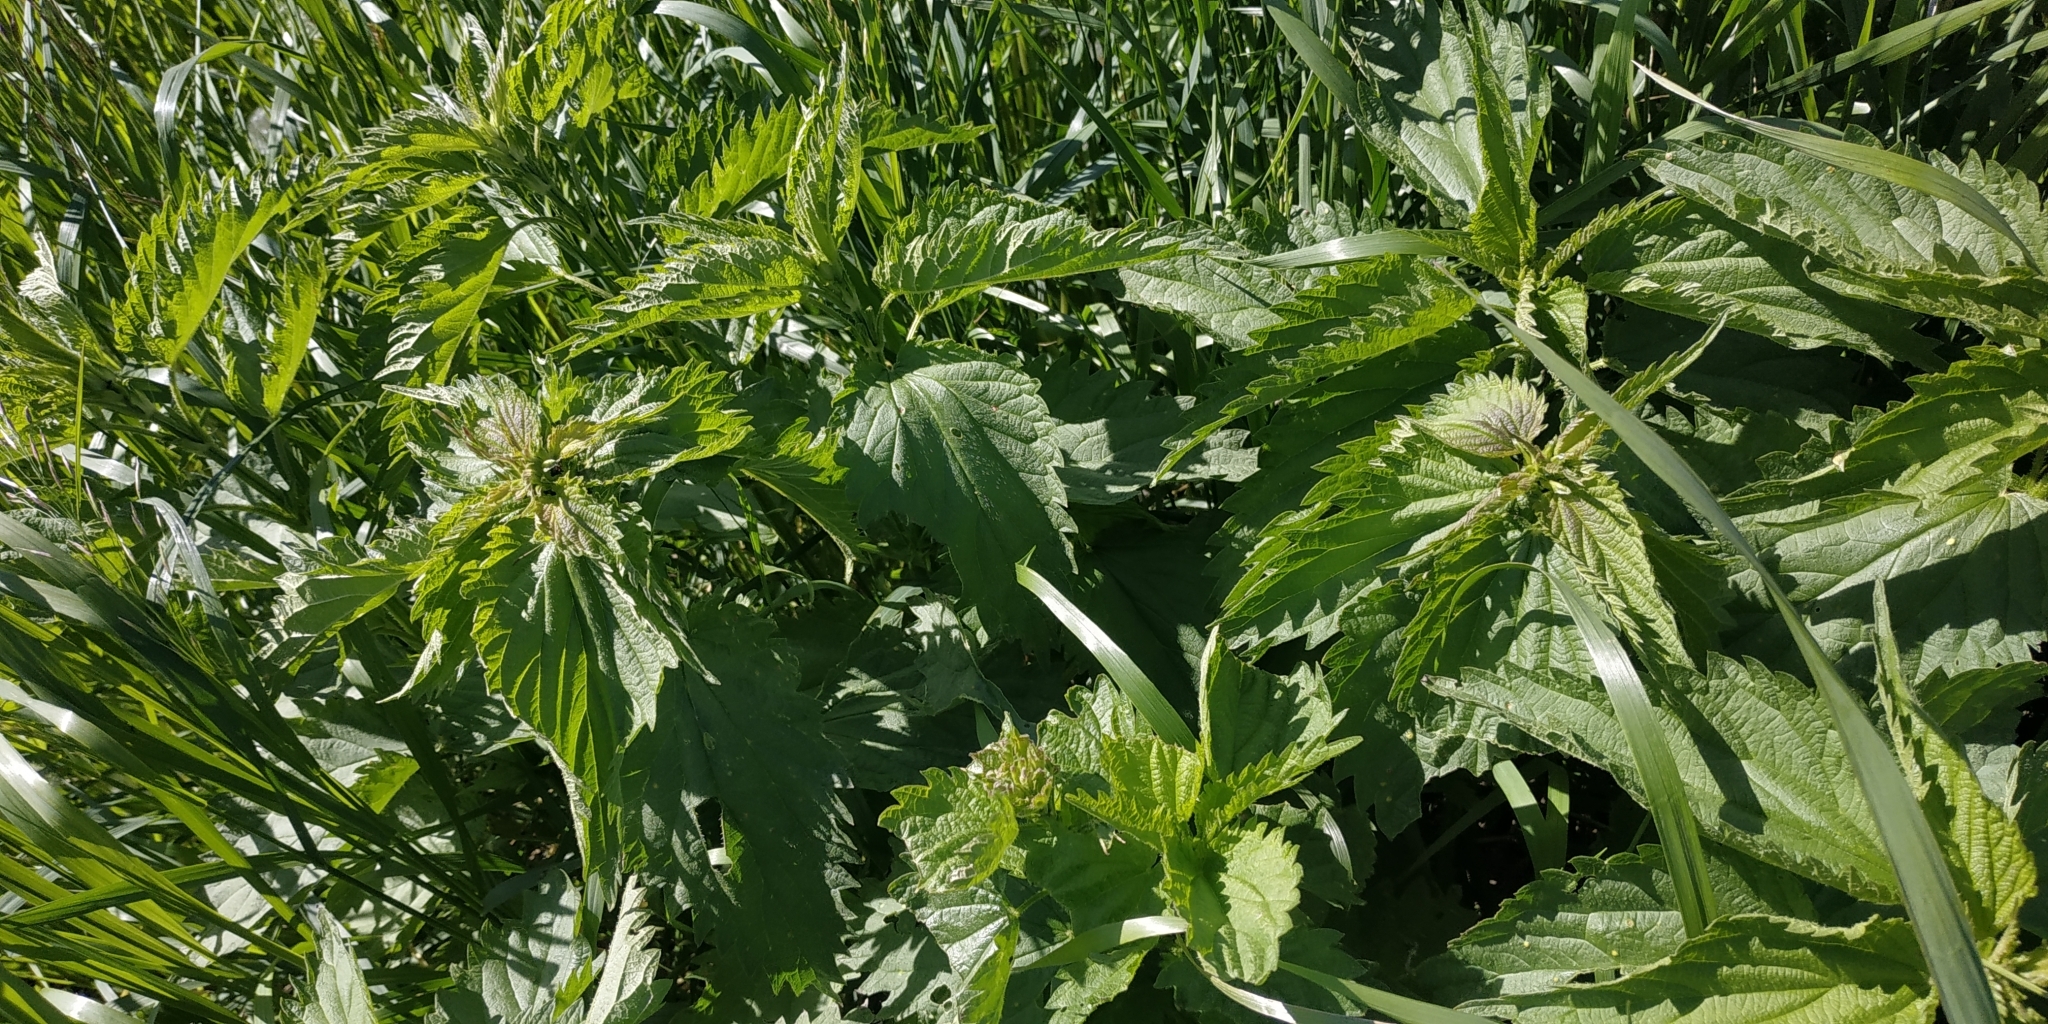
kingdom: Plantae
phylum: Tracheophyta
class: Magnoliopsida
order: Rosales
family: Urticaceae
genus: Urtica
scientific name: Urtica dioica
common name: Common nettle
